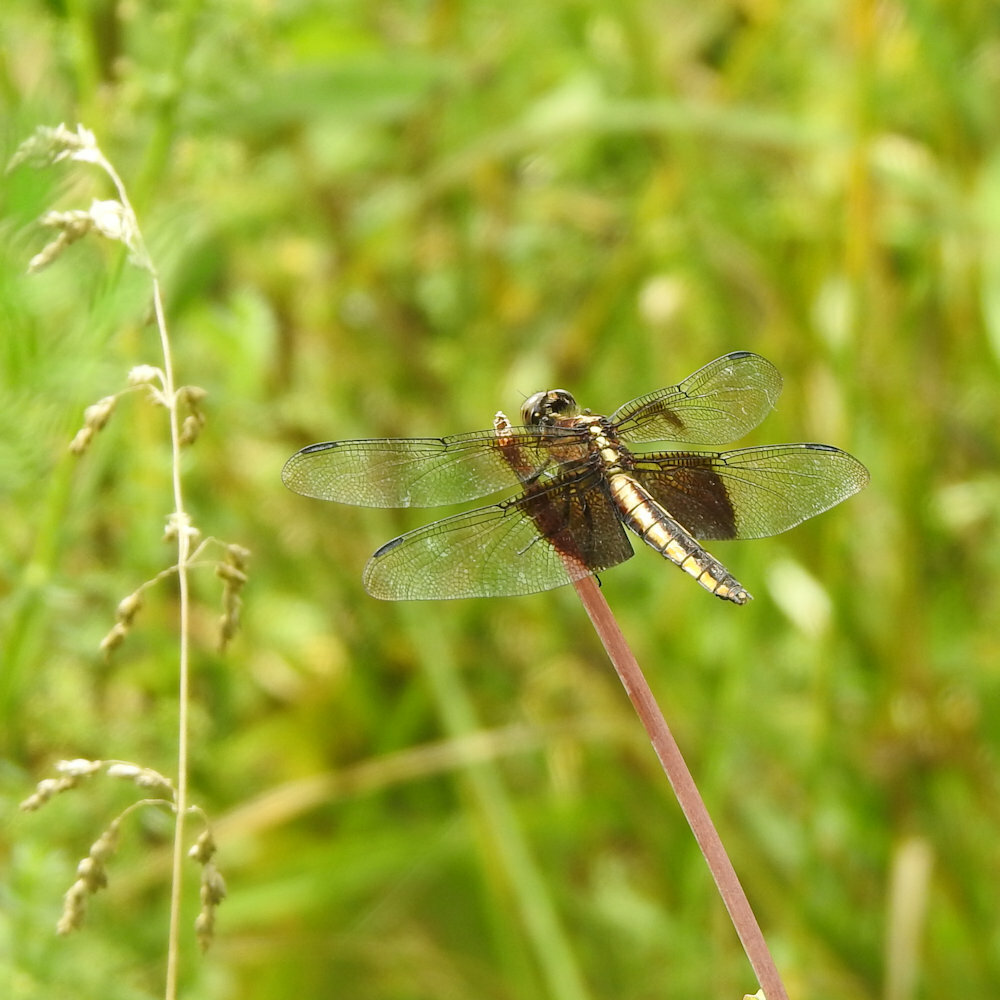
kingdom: Animalia
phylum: Arthropoda
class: Insecta
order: Odonata
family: Libellulidae
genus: Libellula
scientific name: Libellula luctuosa
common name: Widow skimmer
